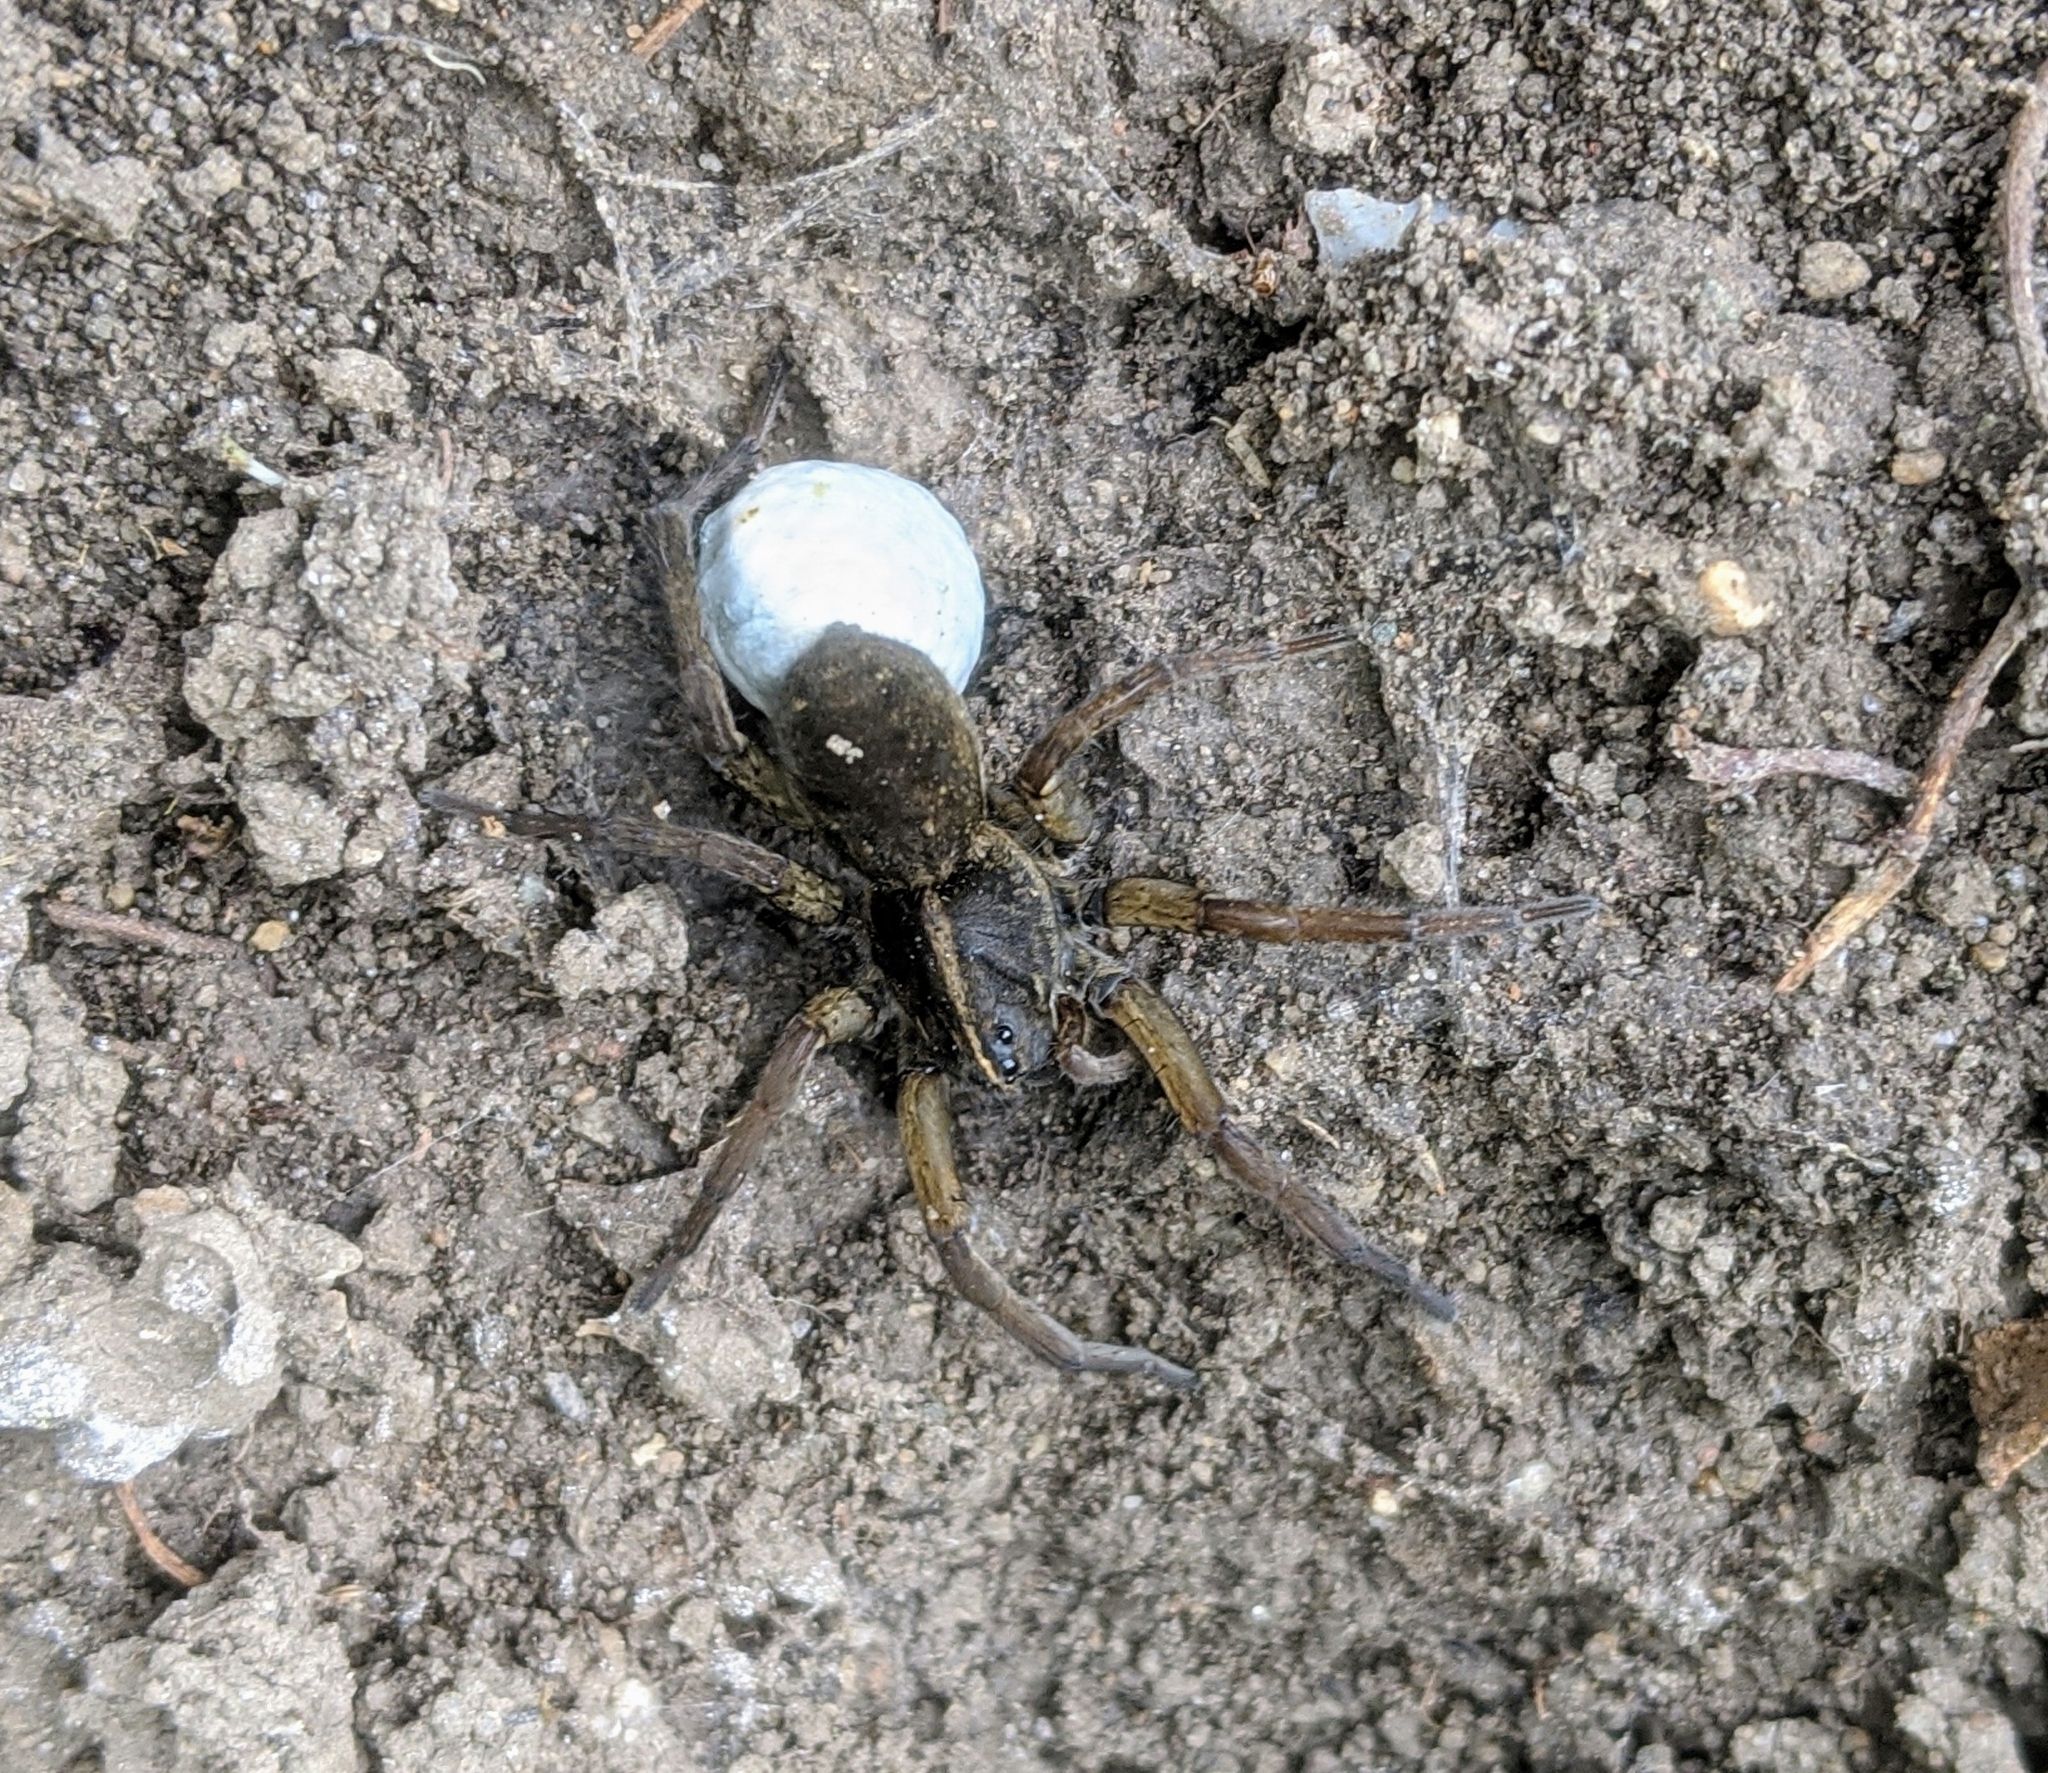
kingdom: Animalia
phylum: Arthropoda
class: Arachnida
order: Araneae
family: Lycosidae
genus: Tigrosa
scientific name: Tigrosa helluo
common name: Wetland giant wolf spider
